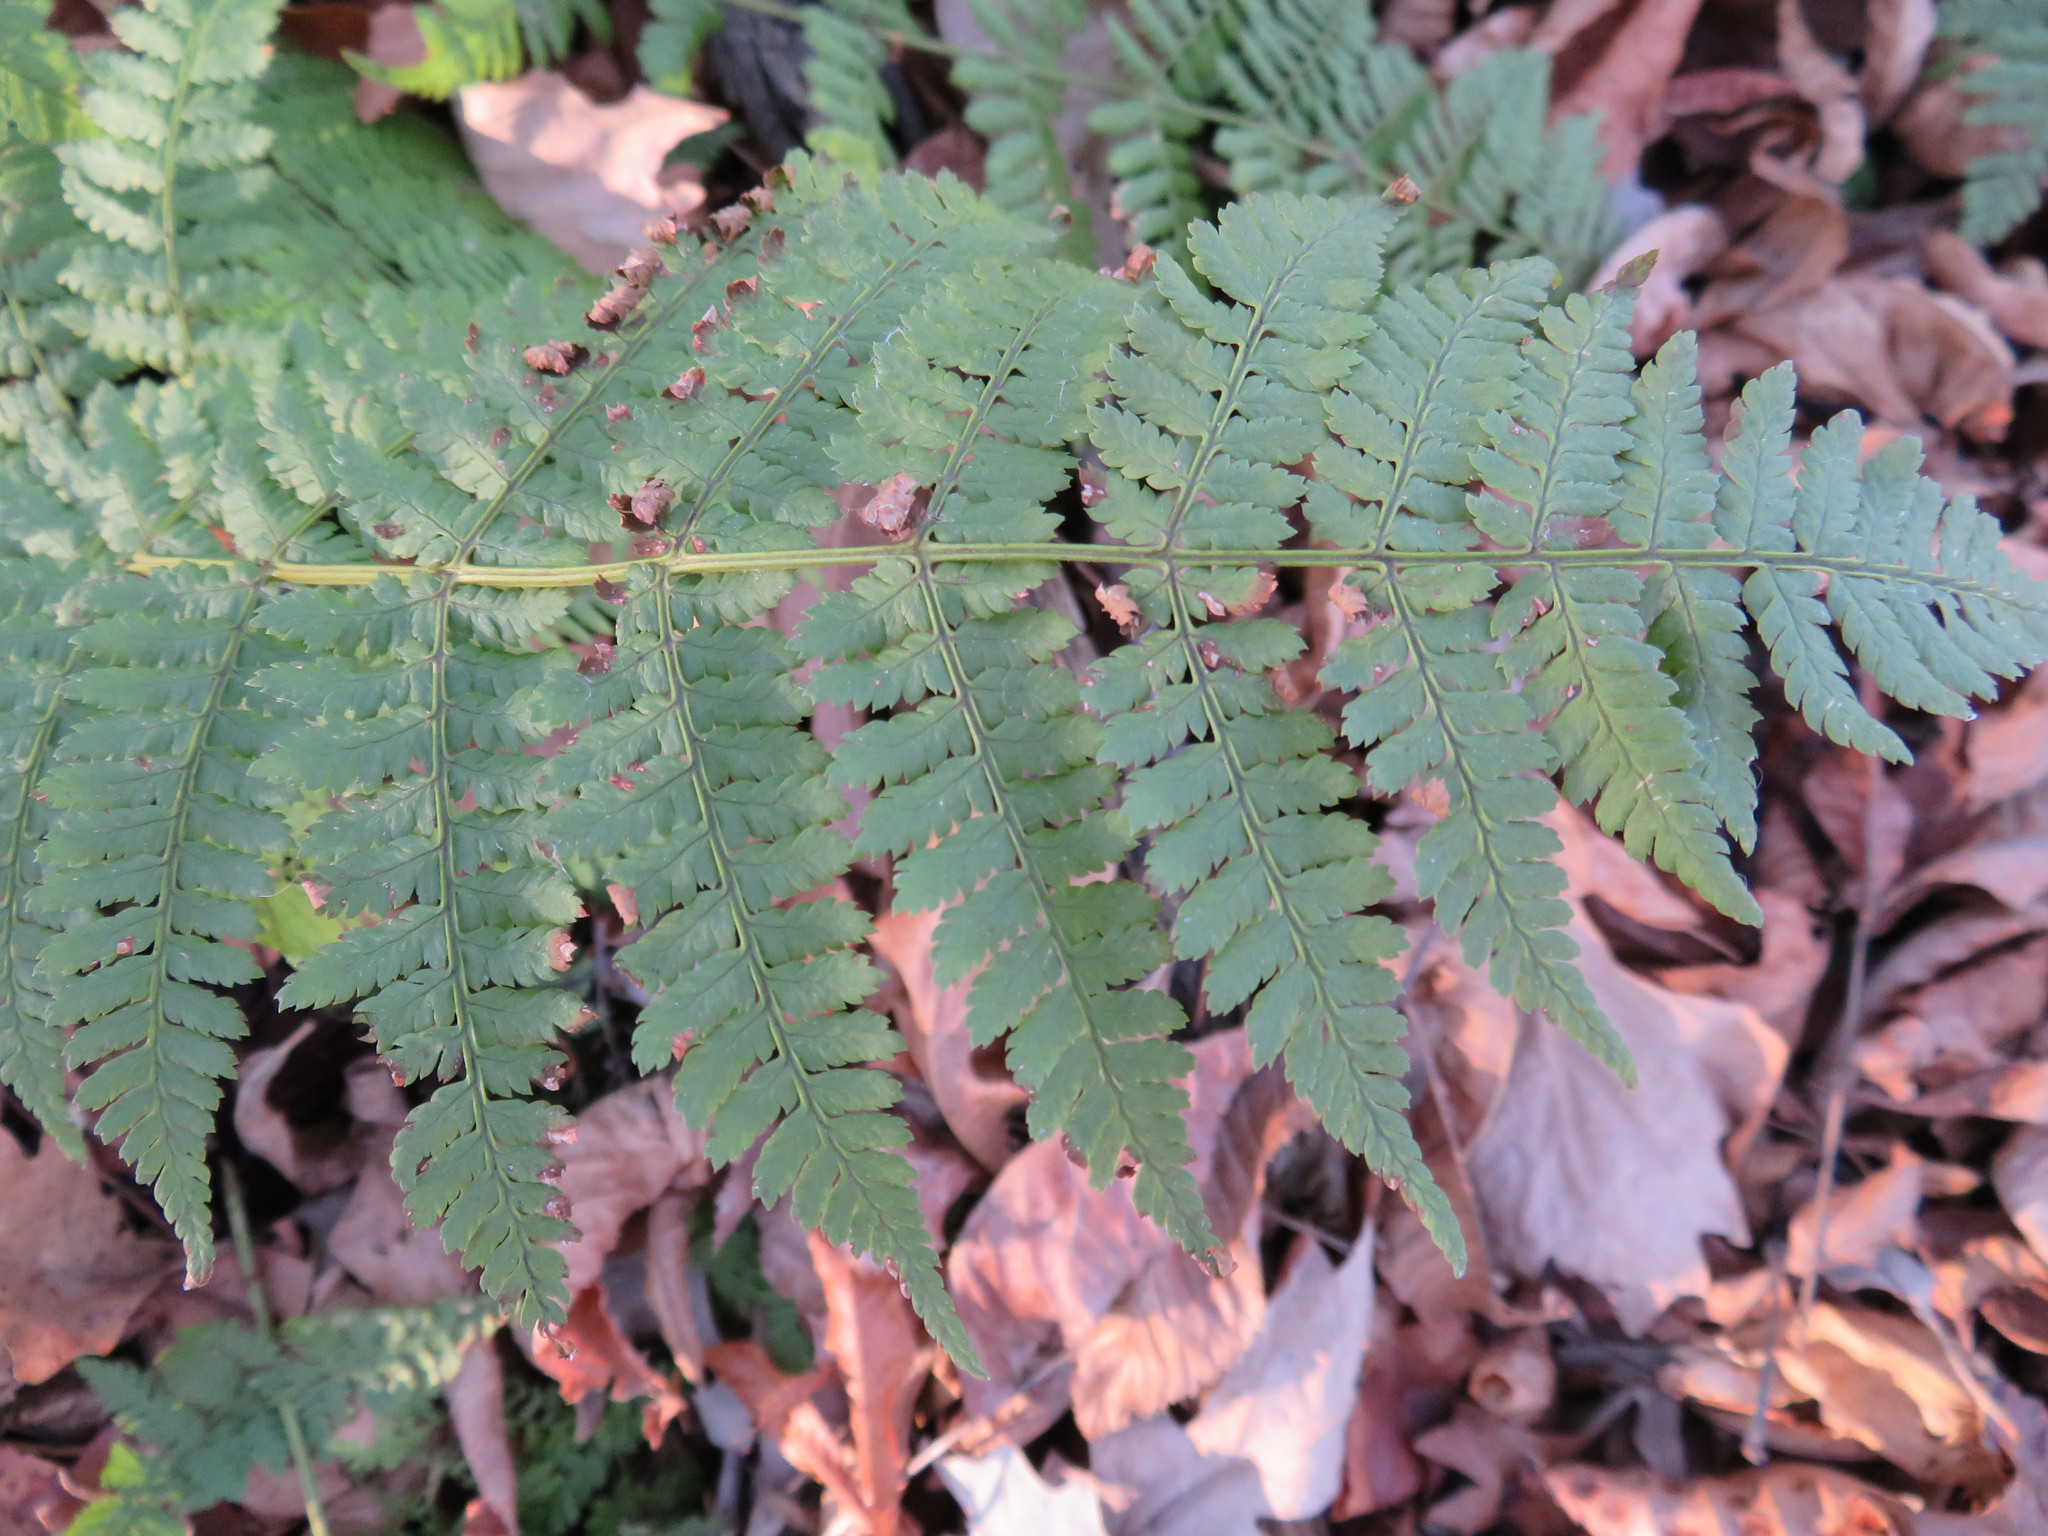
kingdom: Plantae
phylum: Tracheophyta
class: Polypodiopsida
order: Polypodiales
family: Dryopteridaceae
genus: Dryopteris
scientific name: Dryopteris intermedia
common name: Evergreen wood fern
